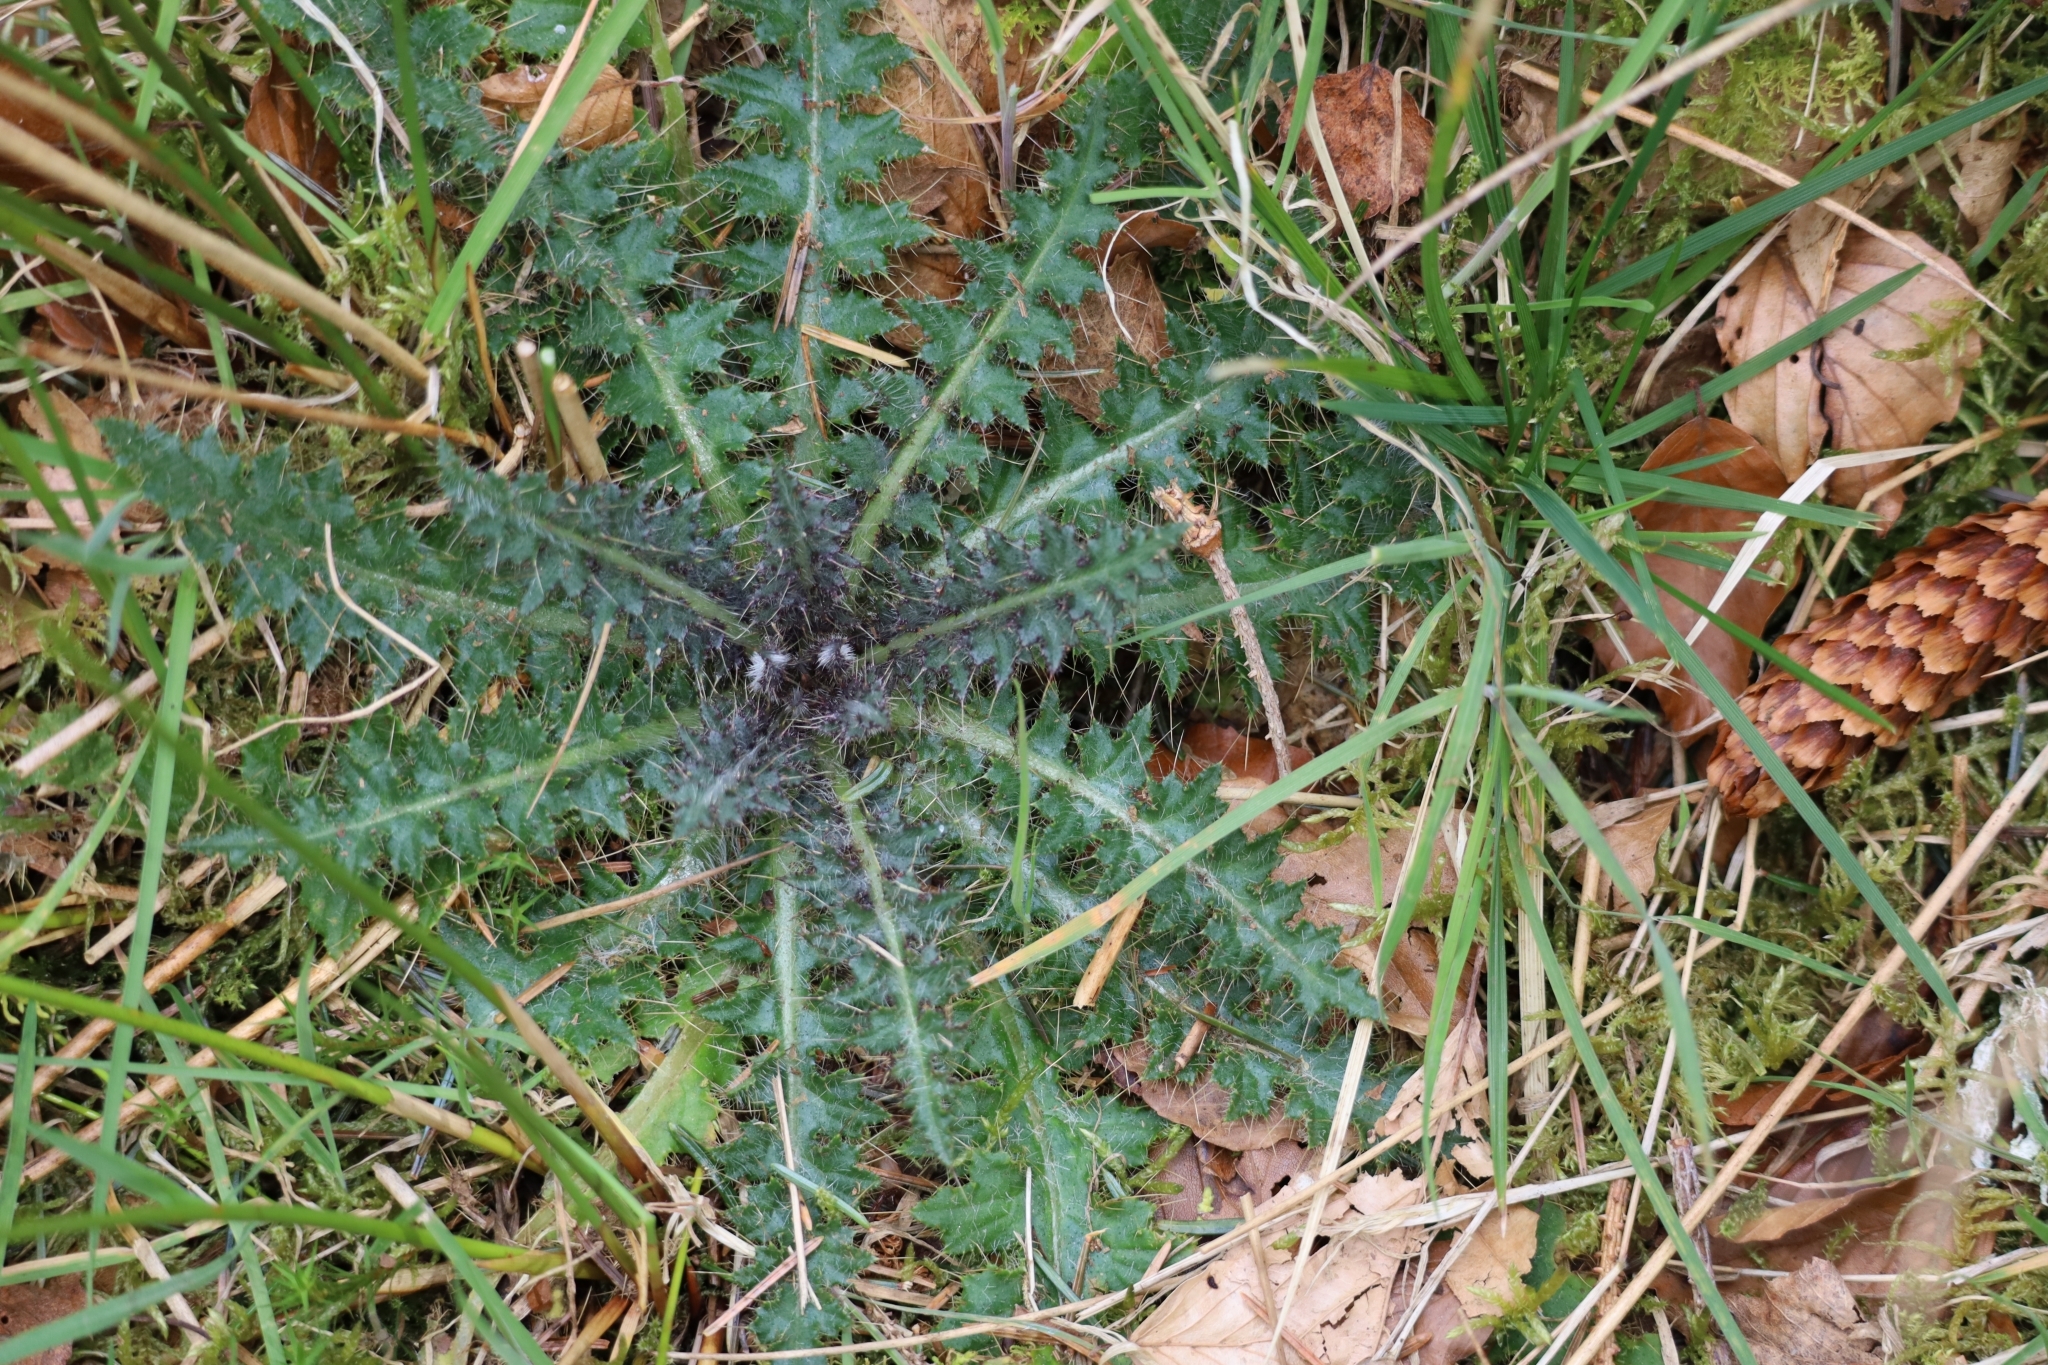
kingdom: Plantae
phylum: Tracheophyta
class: Magnoliopsida
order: Asterales
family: Asteraceae
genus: Cirsium
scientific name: Cirsium palustre
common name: Marsh thistle
